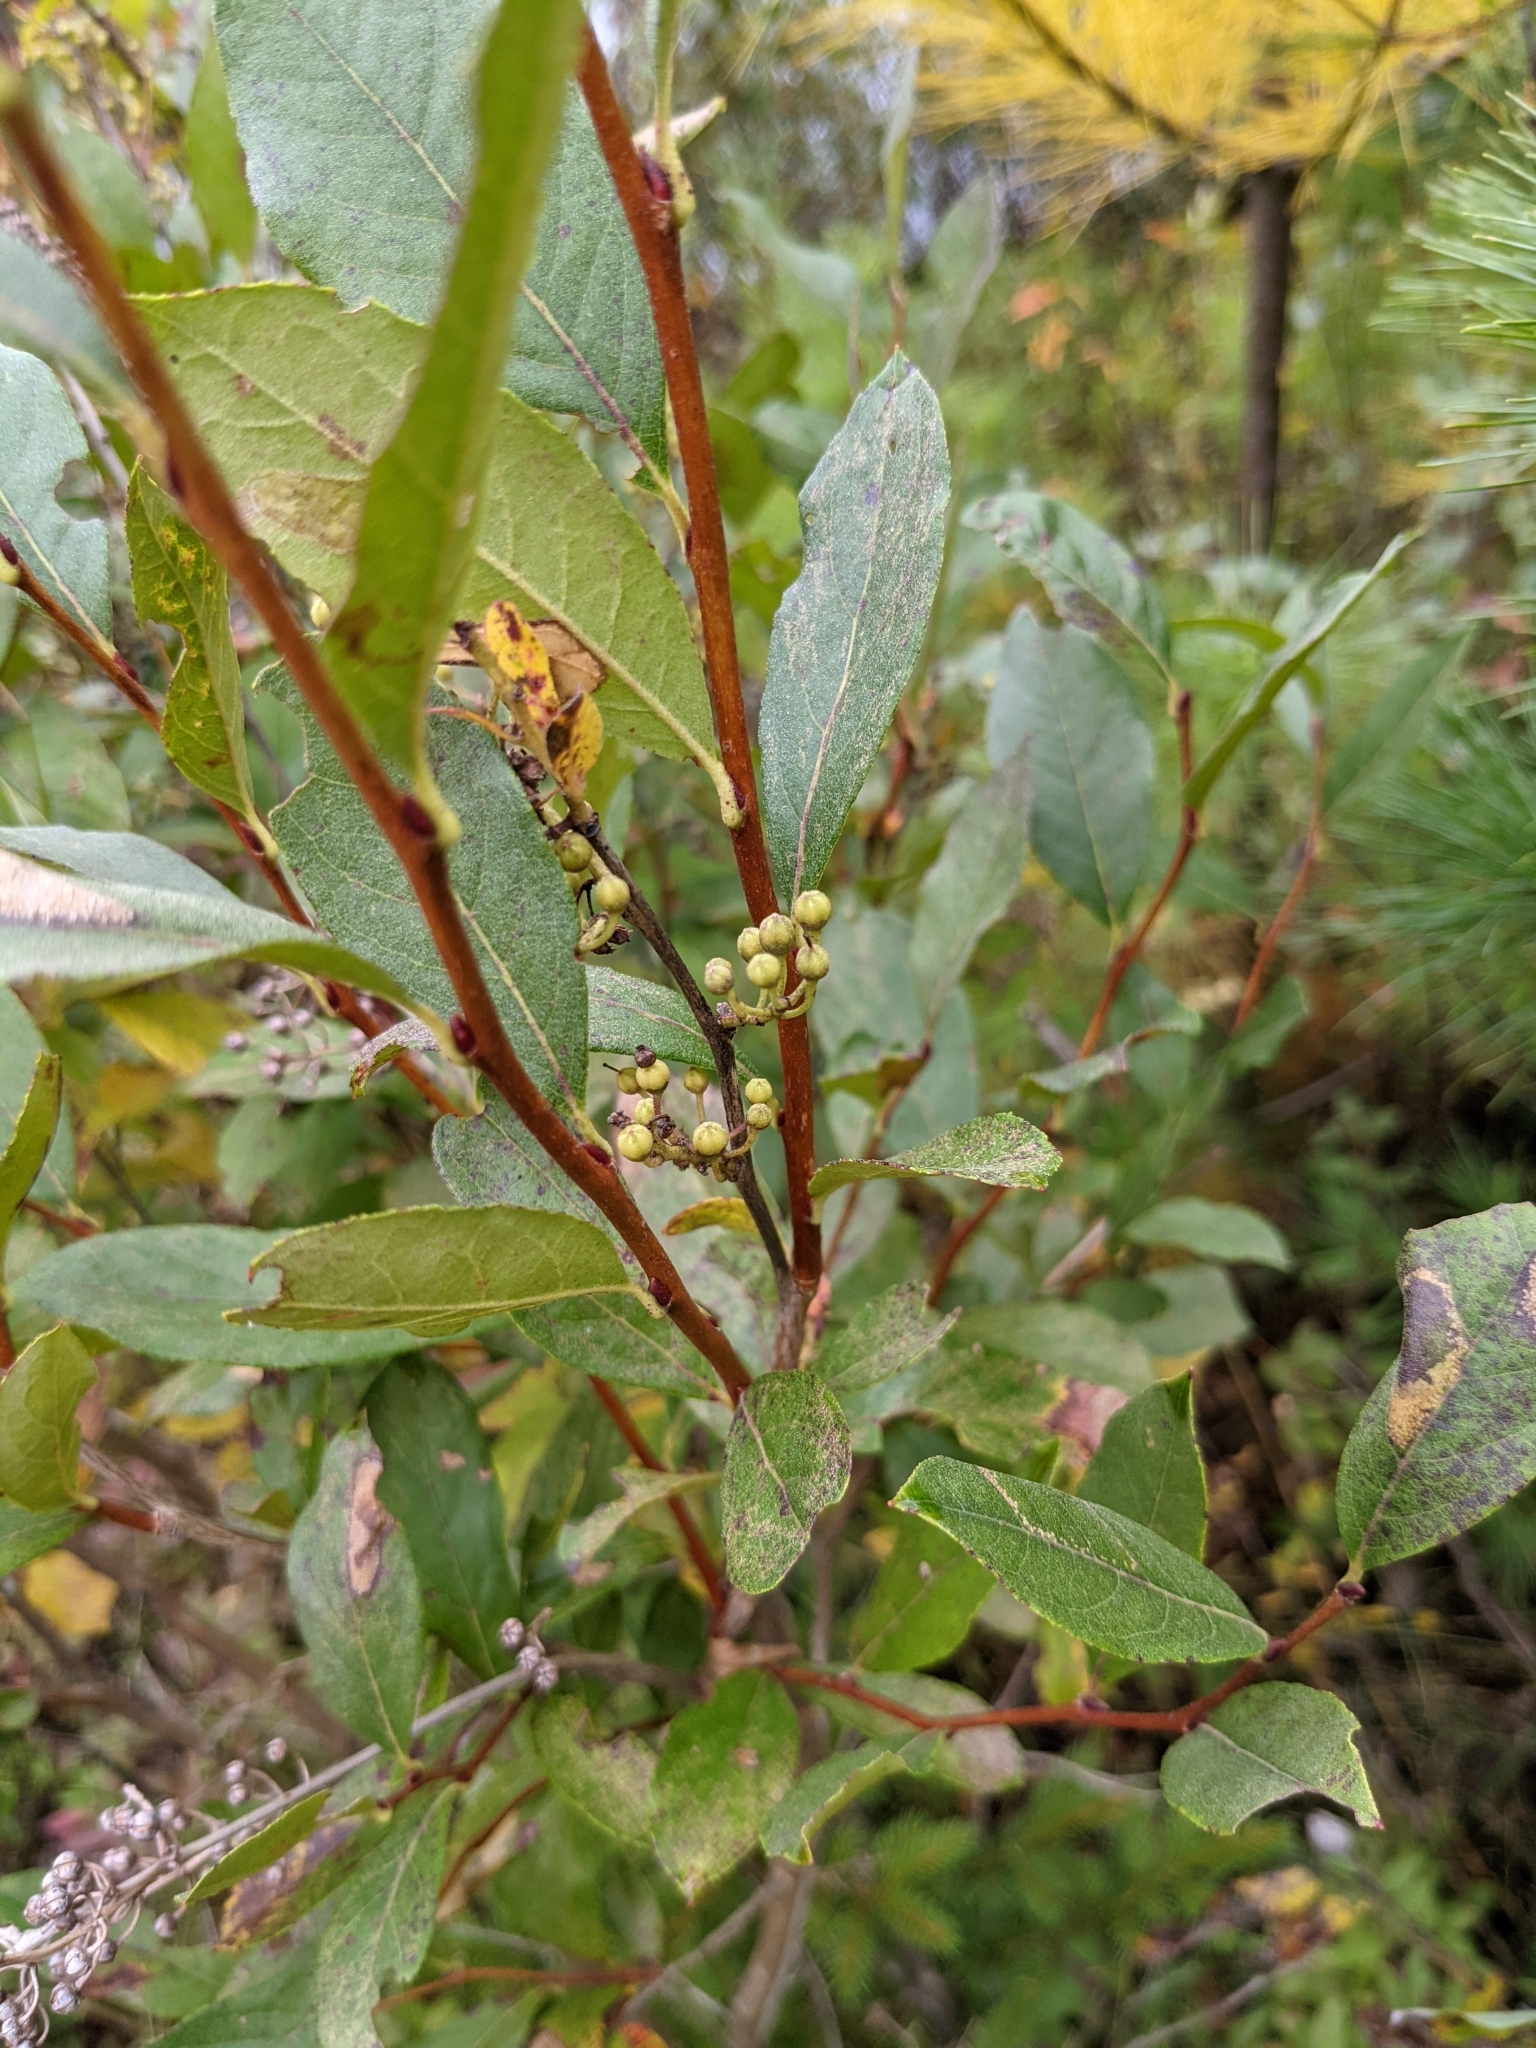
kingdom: Plantae
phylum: Tracheophyta
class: Magnoliopsida
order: Ericales
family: Ericaceae
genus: Lyonia
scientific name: Lyonia ligustrina
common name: Maleberry
